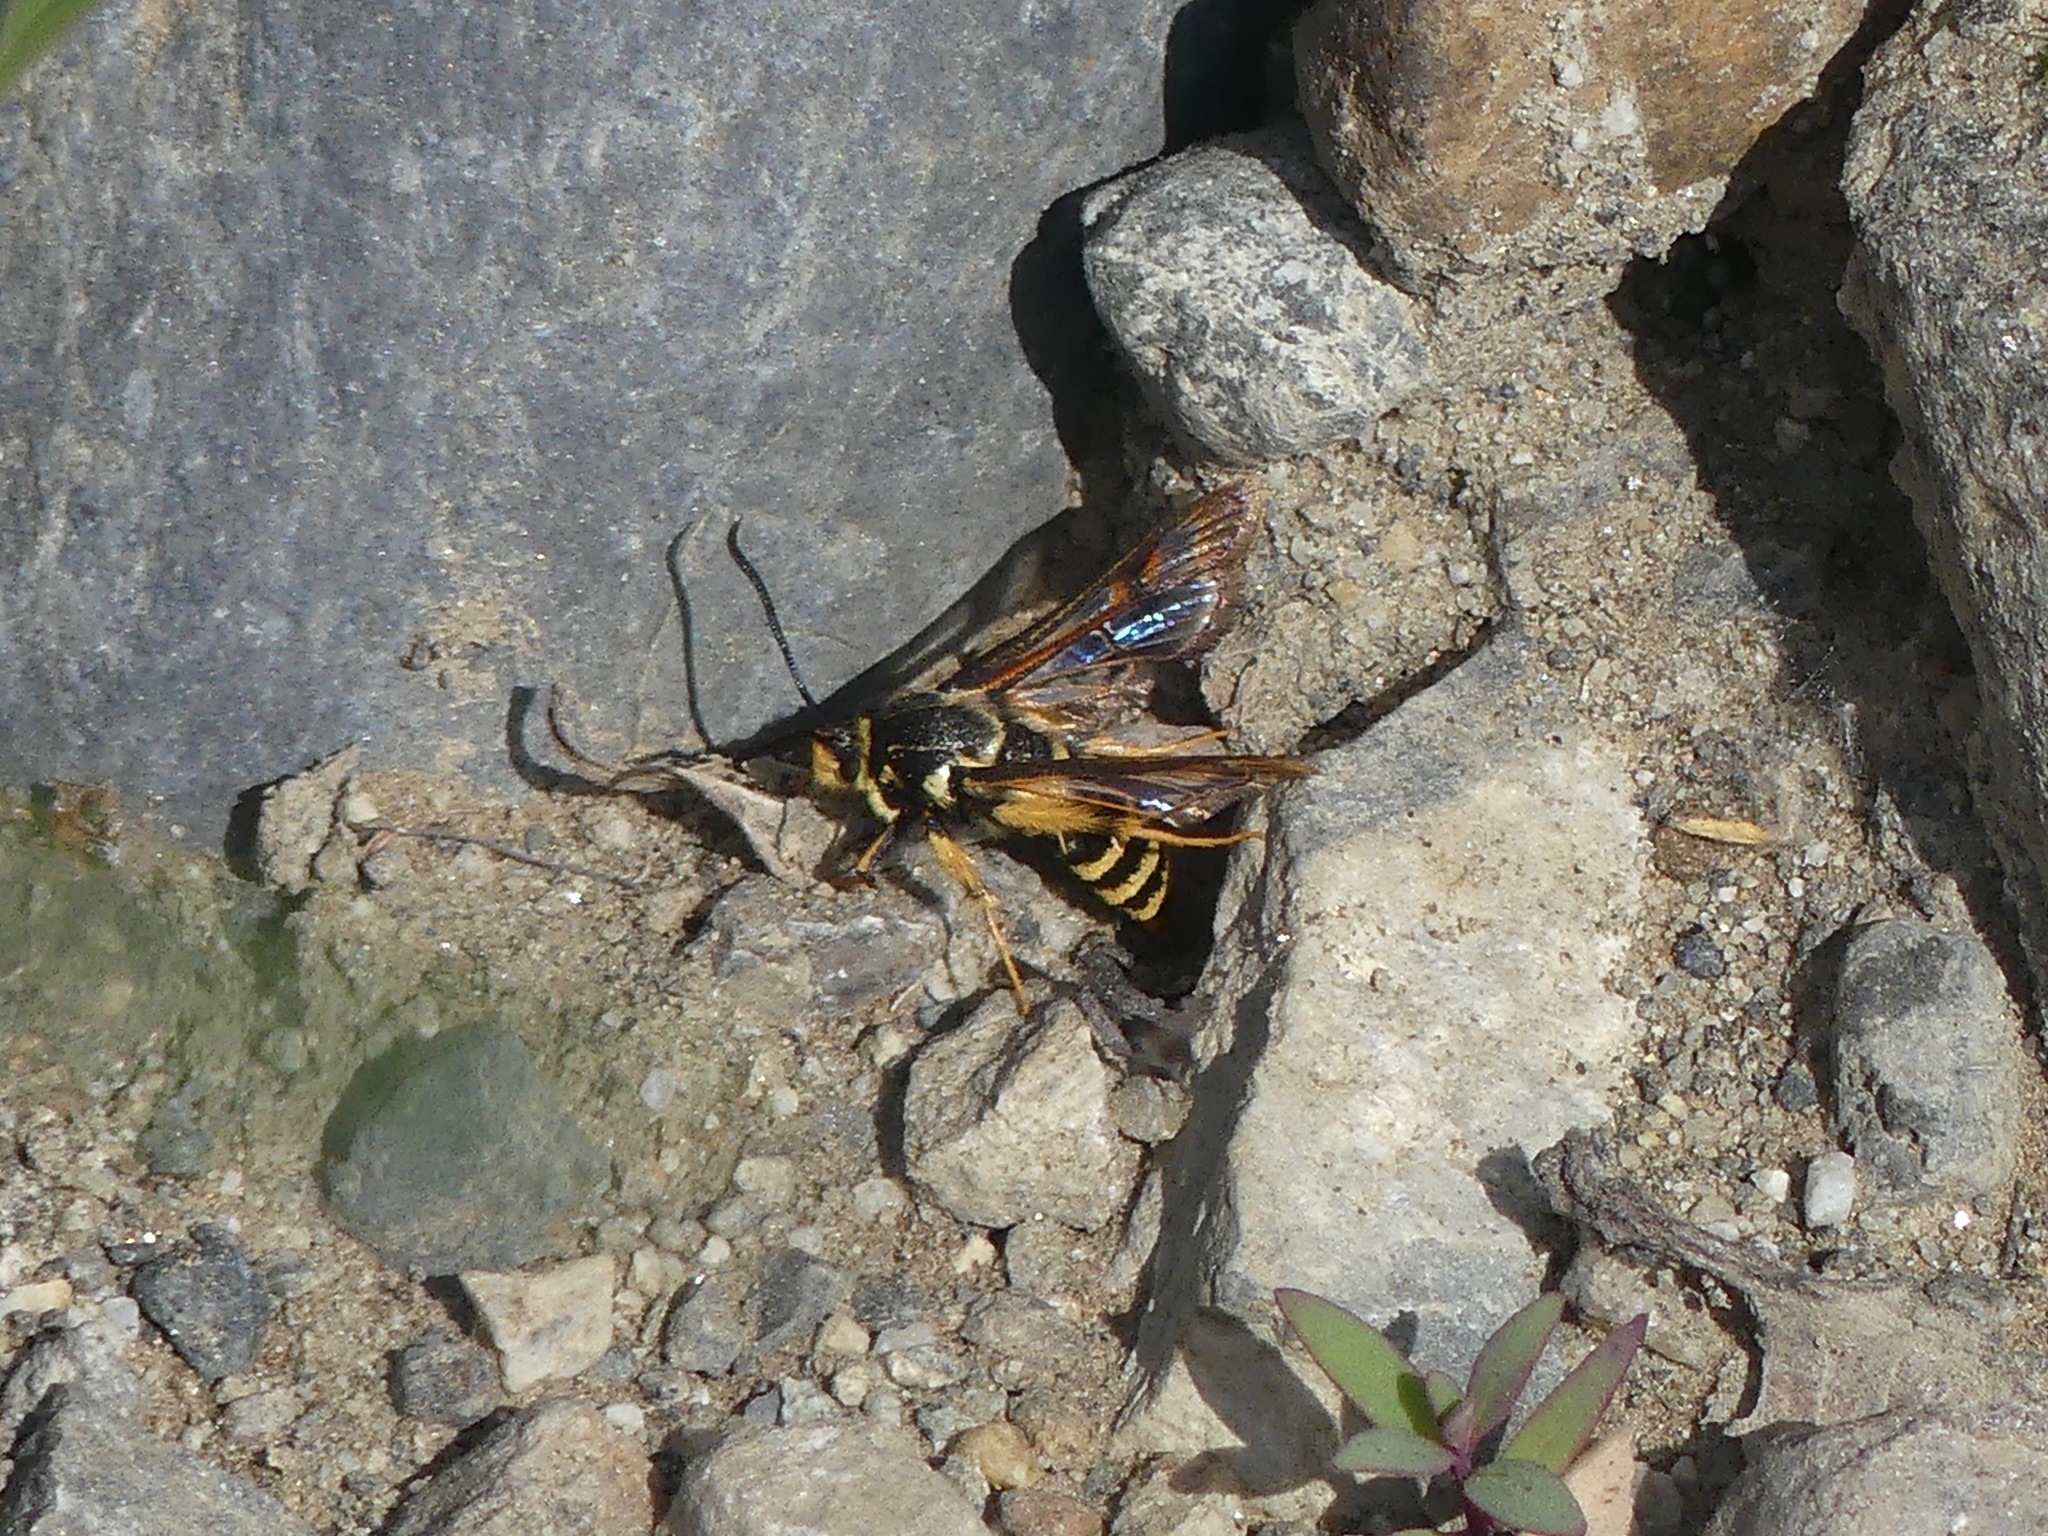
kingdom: Animalia
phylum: Arthropoda
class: Insecta
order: Lepidoptera
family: Sesiidae
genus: Albuna
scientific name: Albuna pyramidalis
